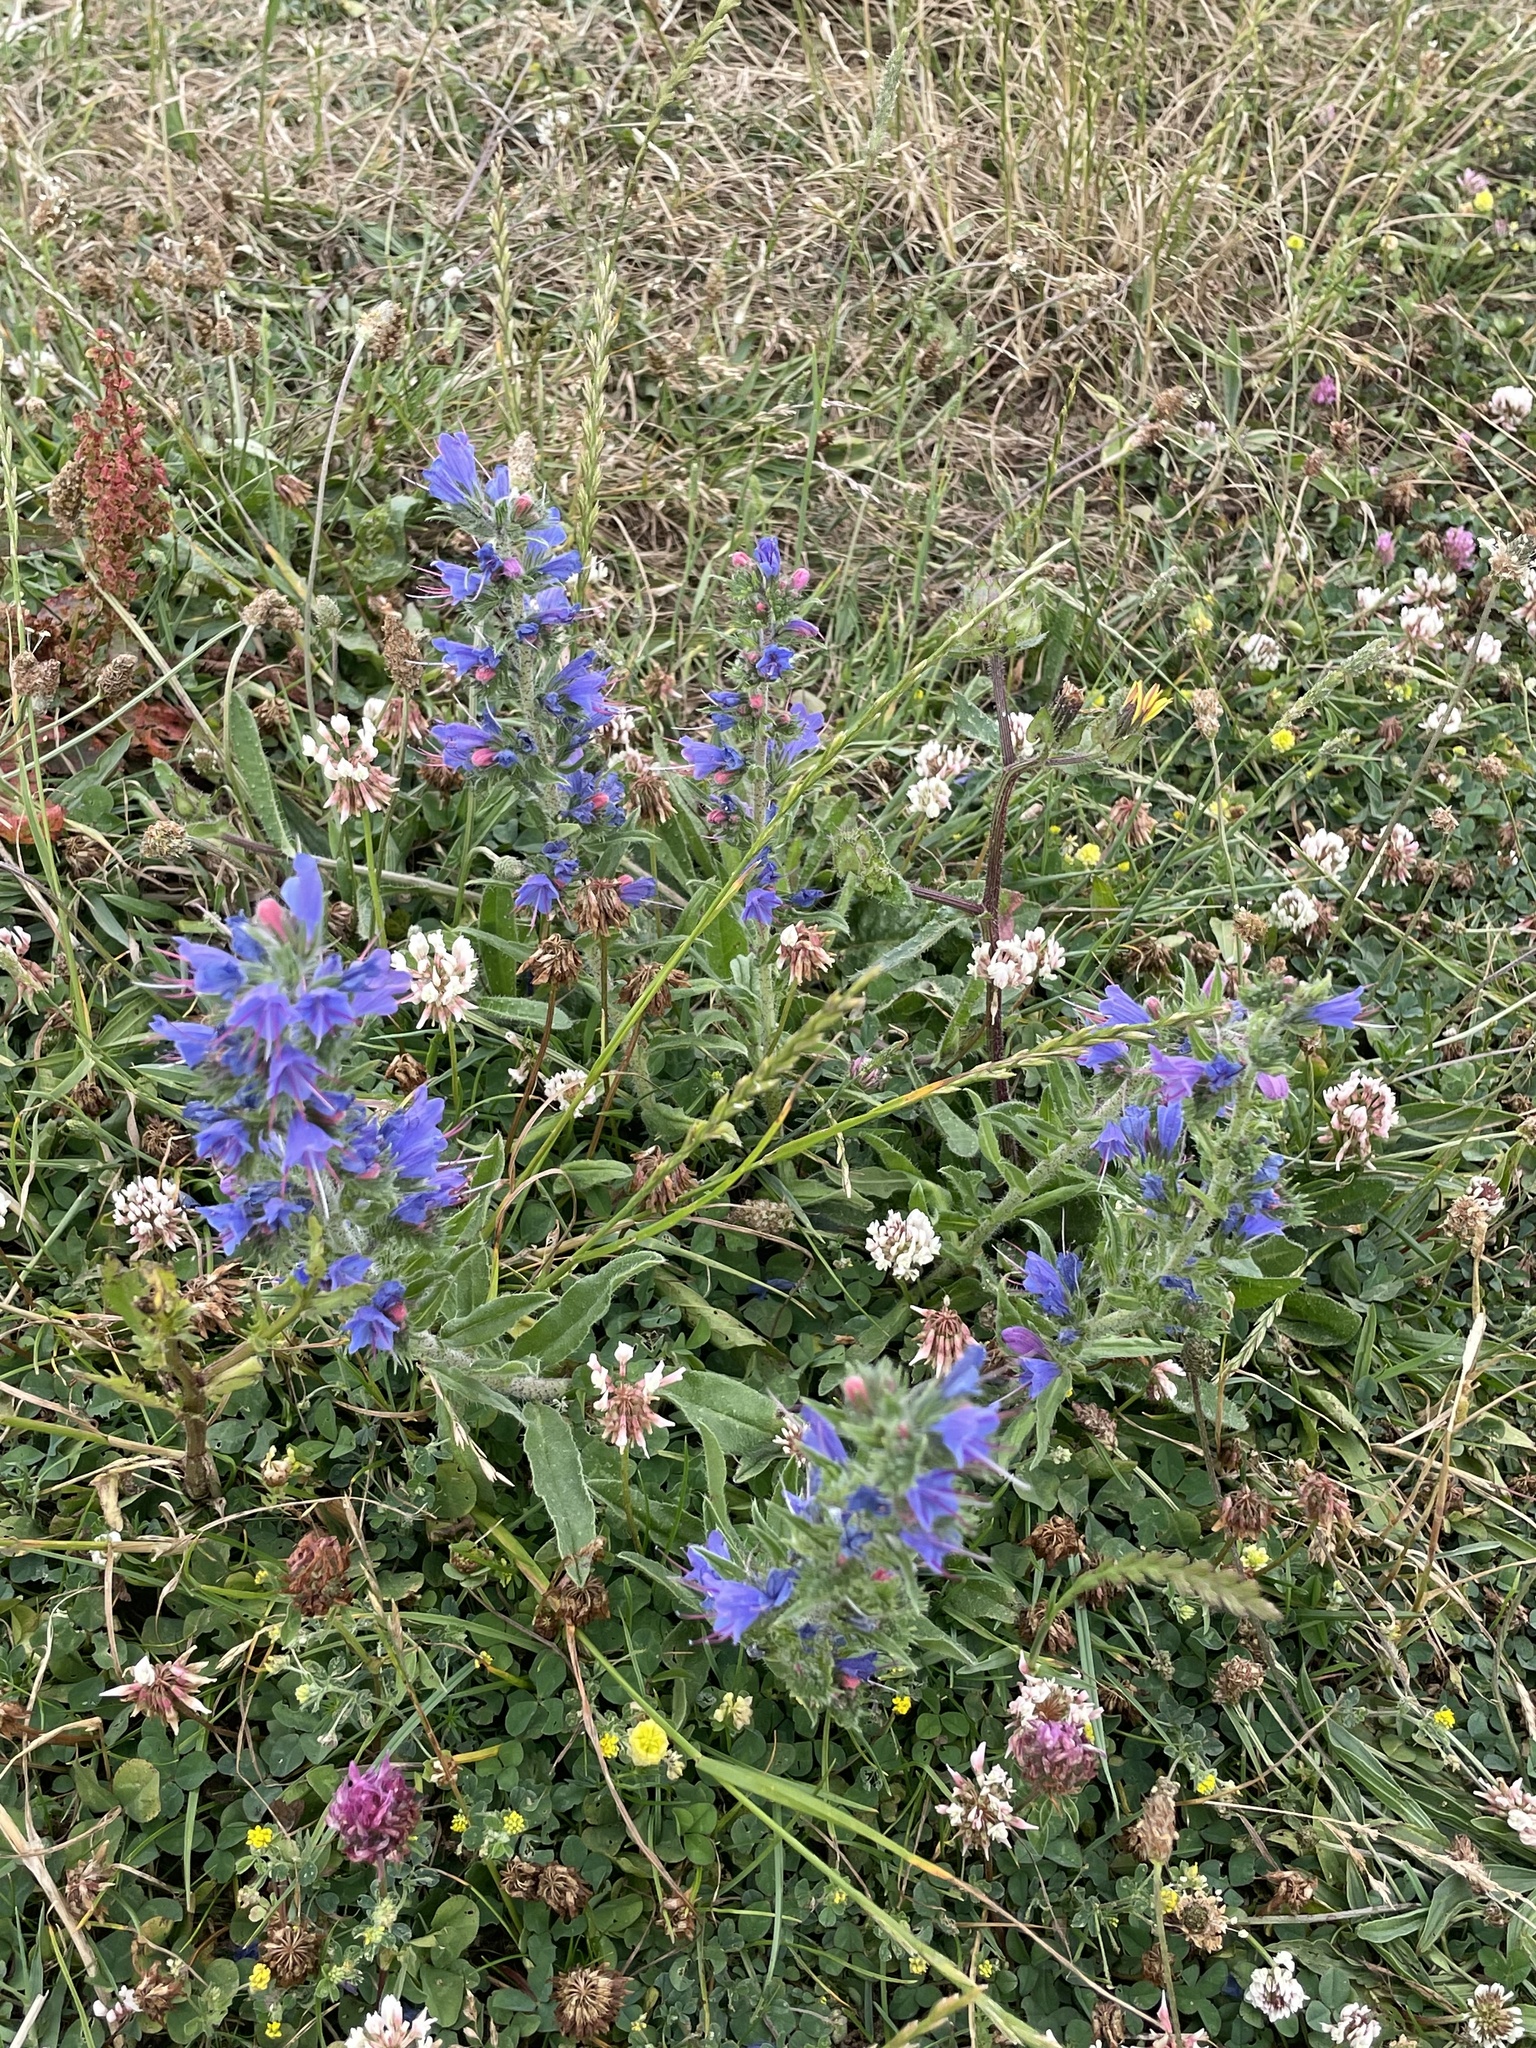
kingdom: Plantae
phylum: Tracheophyta
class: Magnoliopsida
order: Boraginales
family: Boraginaceae
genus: Echium
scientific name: Echium vulgare
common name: Common viper's bugloss
